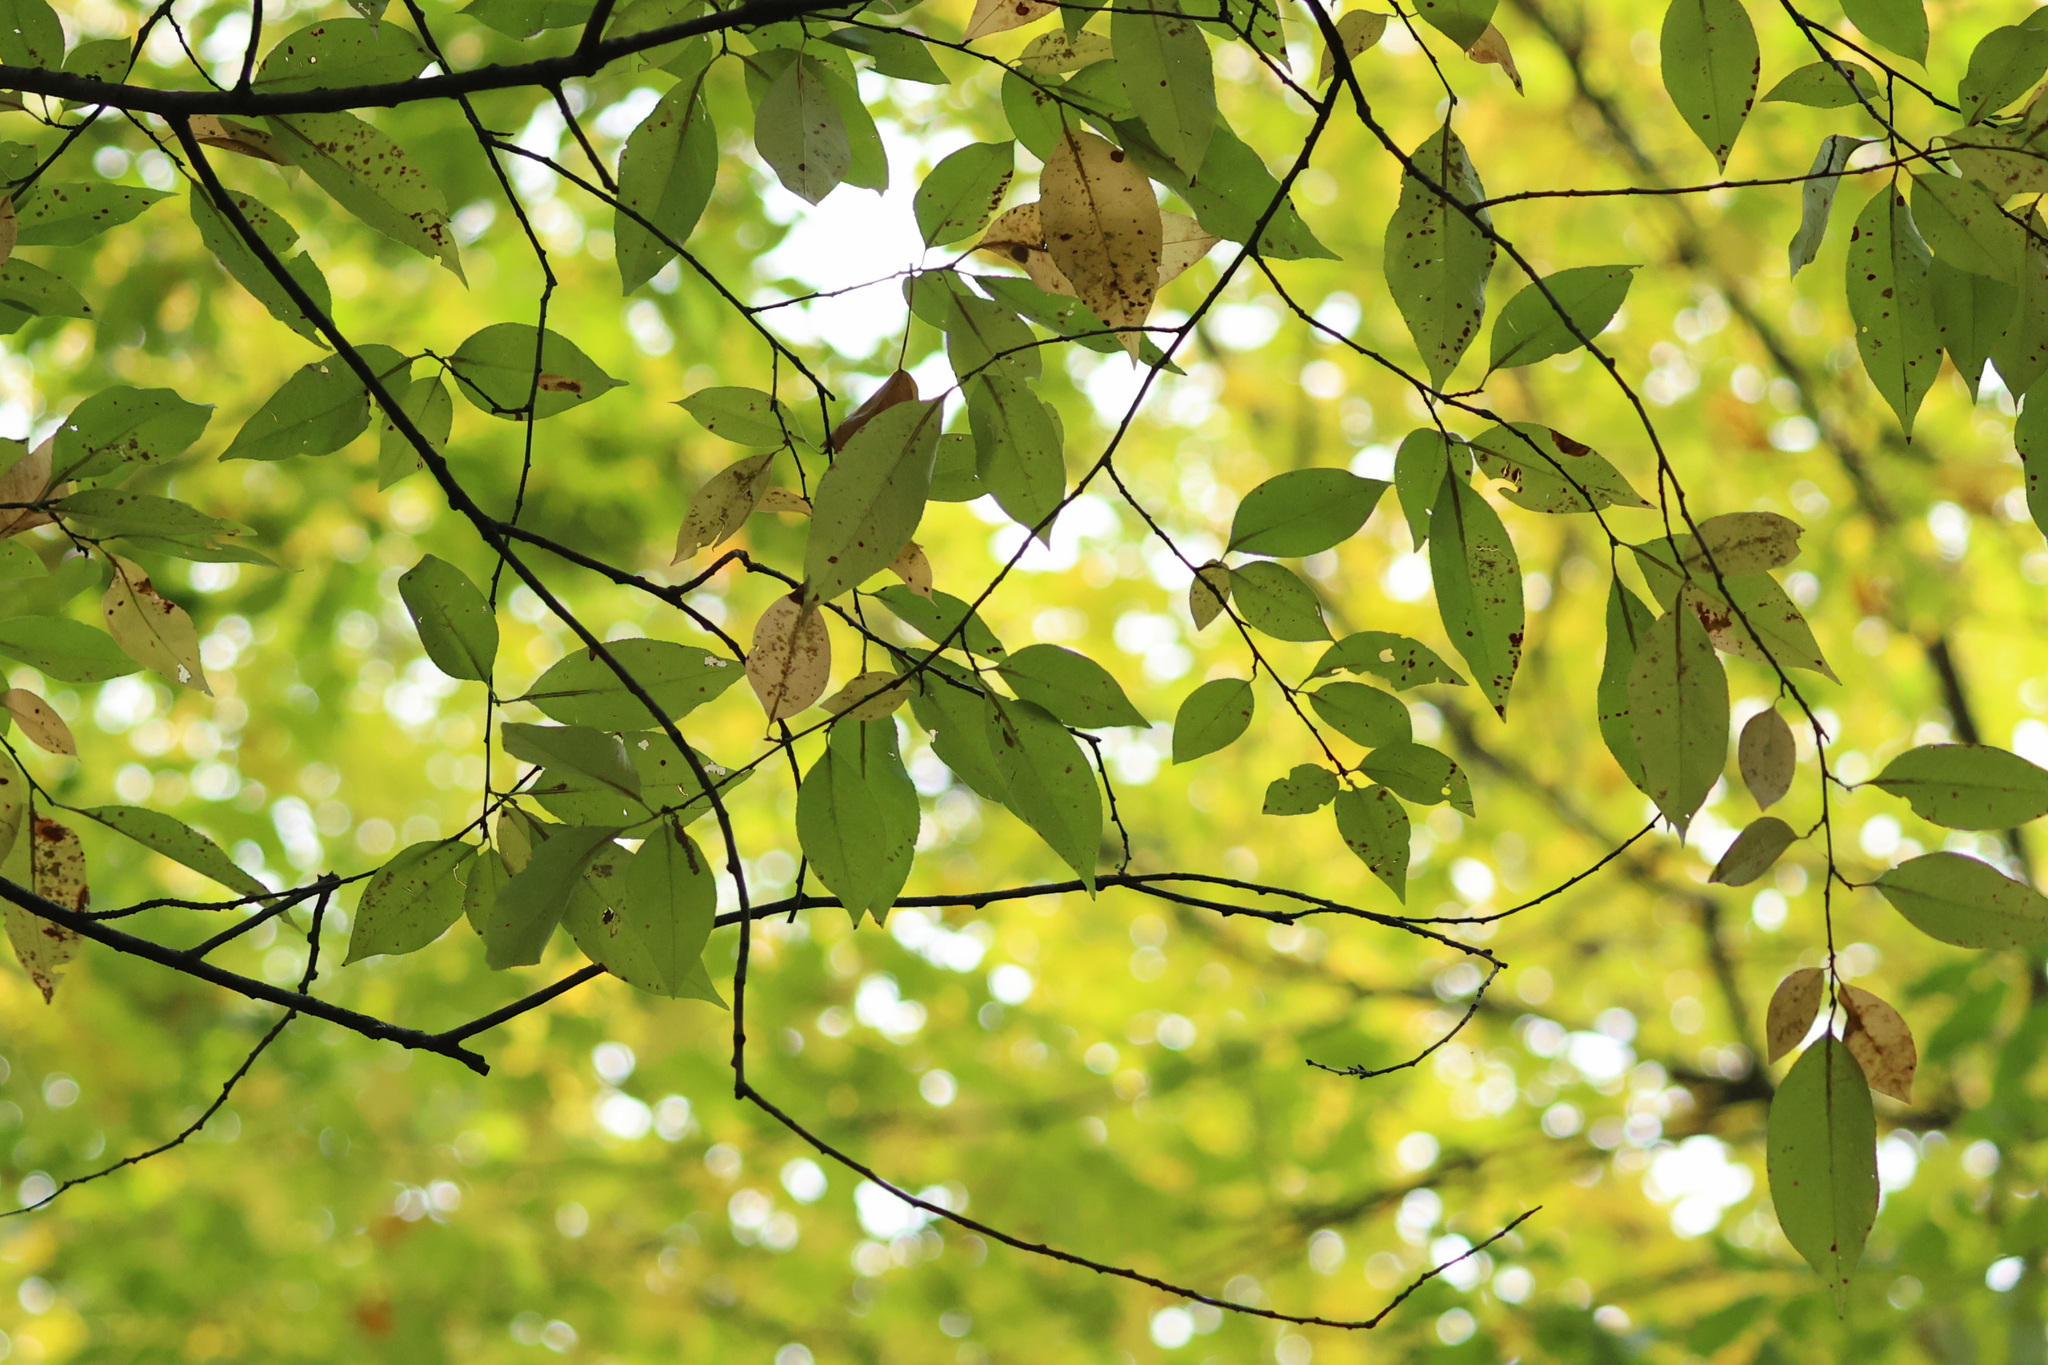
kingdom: Plantae
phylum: Tracheophyta
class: Magnoliopsida
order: Rosales
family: Rosaceae
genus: Prunus
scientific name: Prunus serotina
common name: Black cherry
